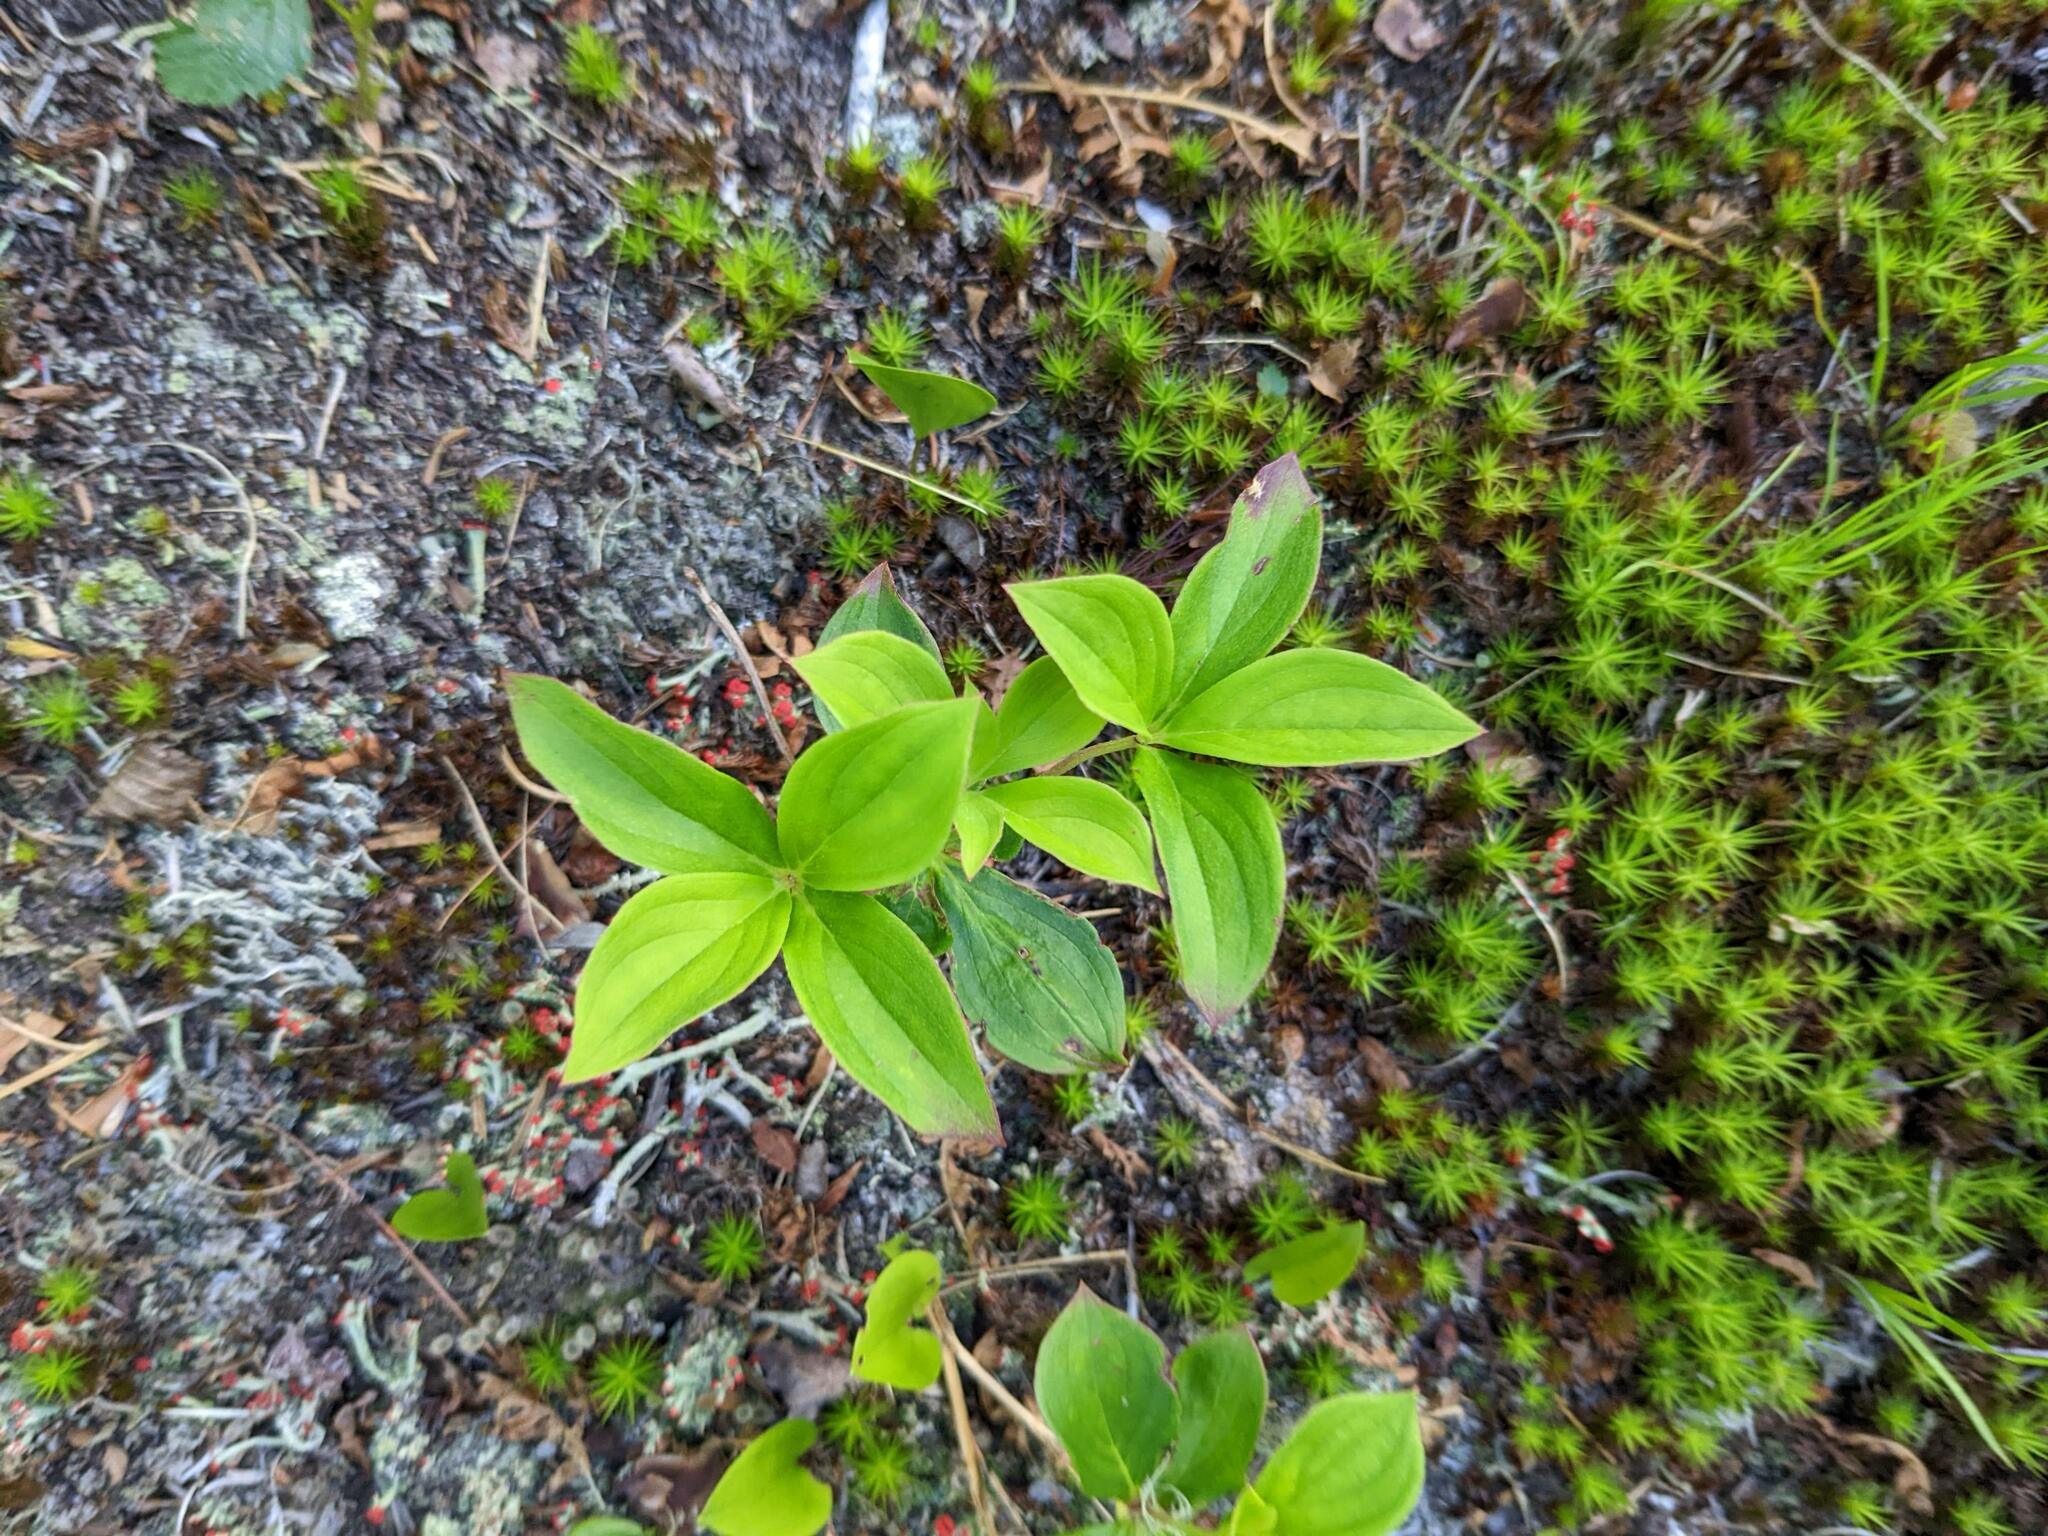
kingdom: Plantae
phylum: Tracheophyta
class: Magnoliopsida
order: Cornales
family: Cornaceae
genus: Cornus
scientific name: Cornus canadensis
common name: Creeping dogwood
